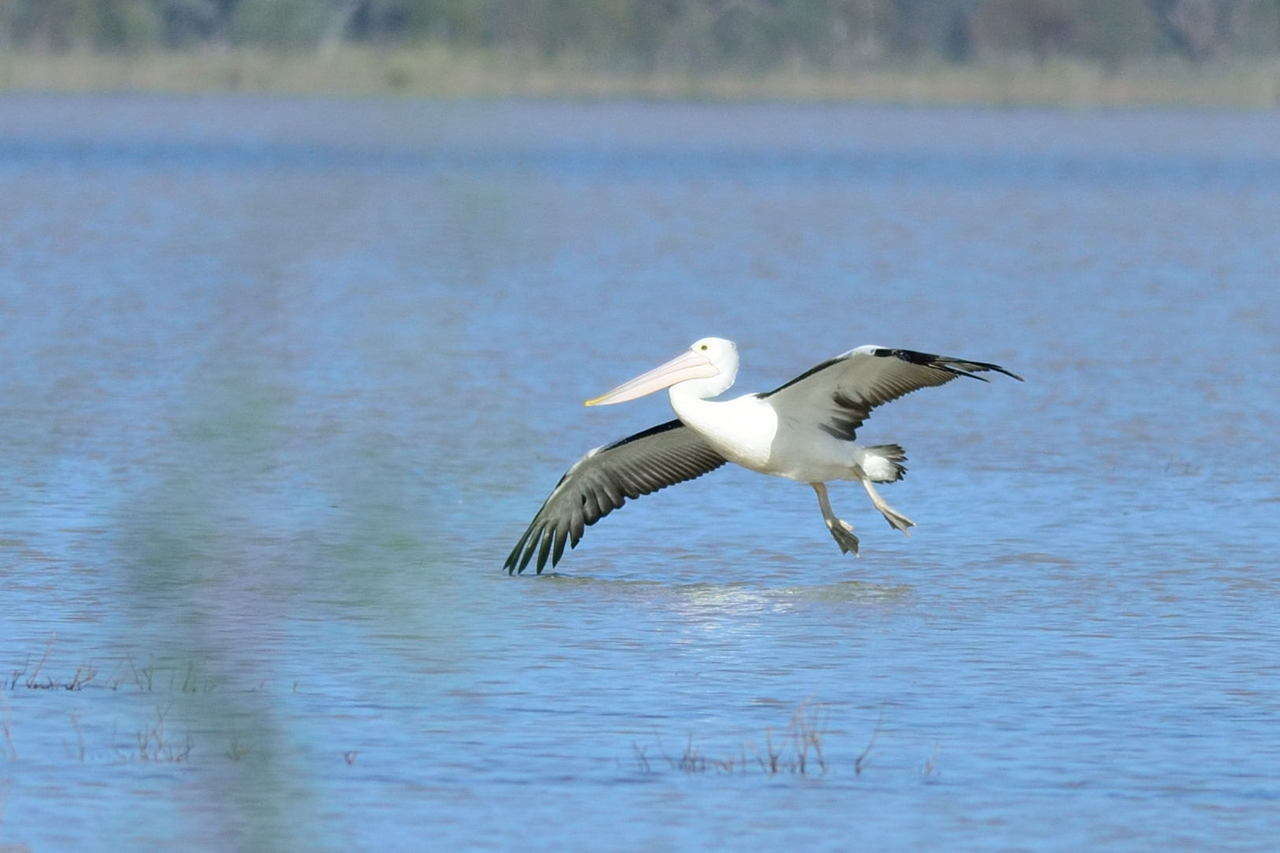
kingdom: Animalia
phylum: Chordata
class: Aves
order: Pelecaniformes
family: Pelecanidae
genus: Pelecanus
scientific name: Pelecanus conspicillatus
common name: Australian pelican
